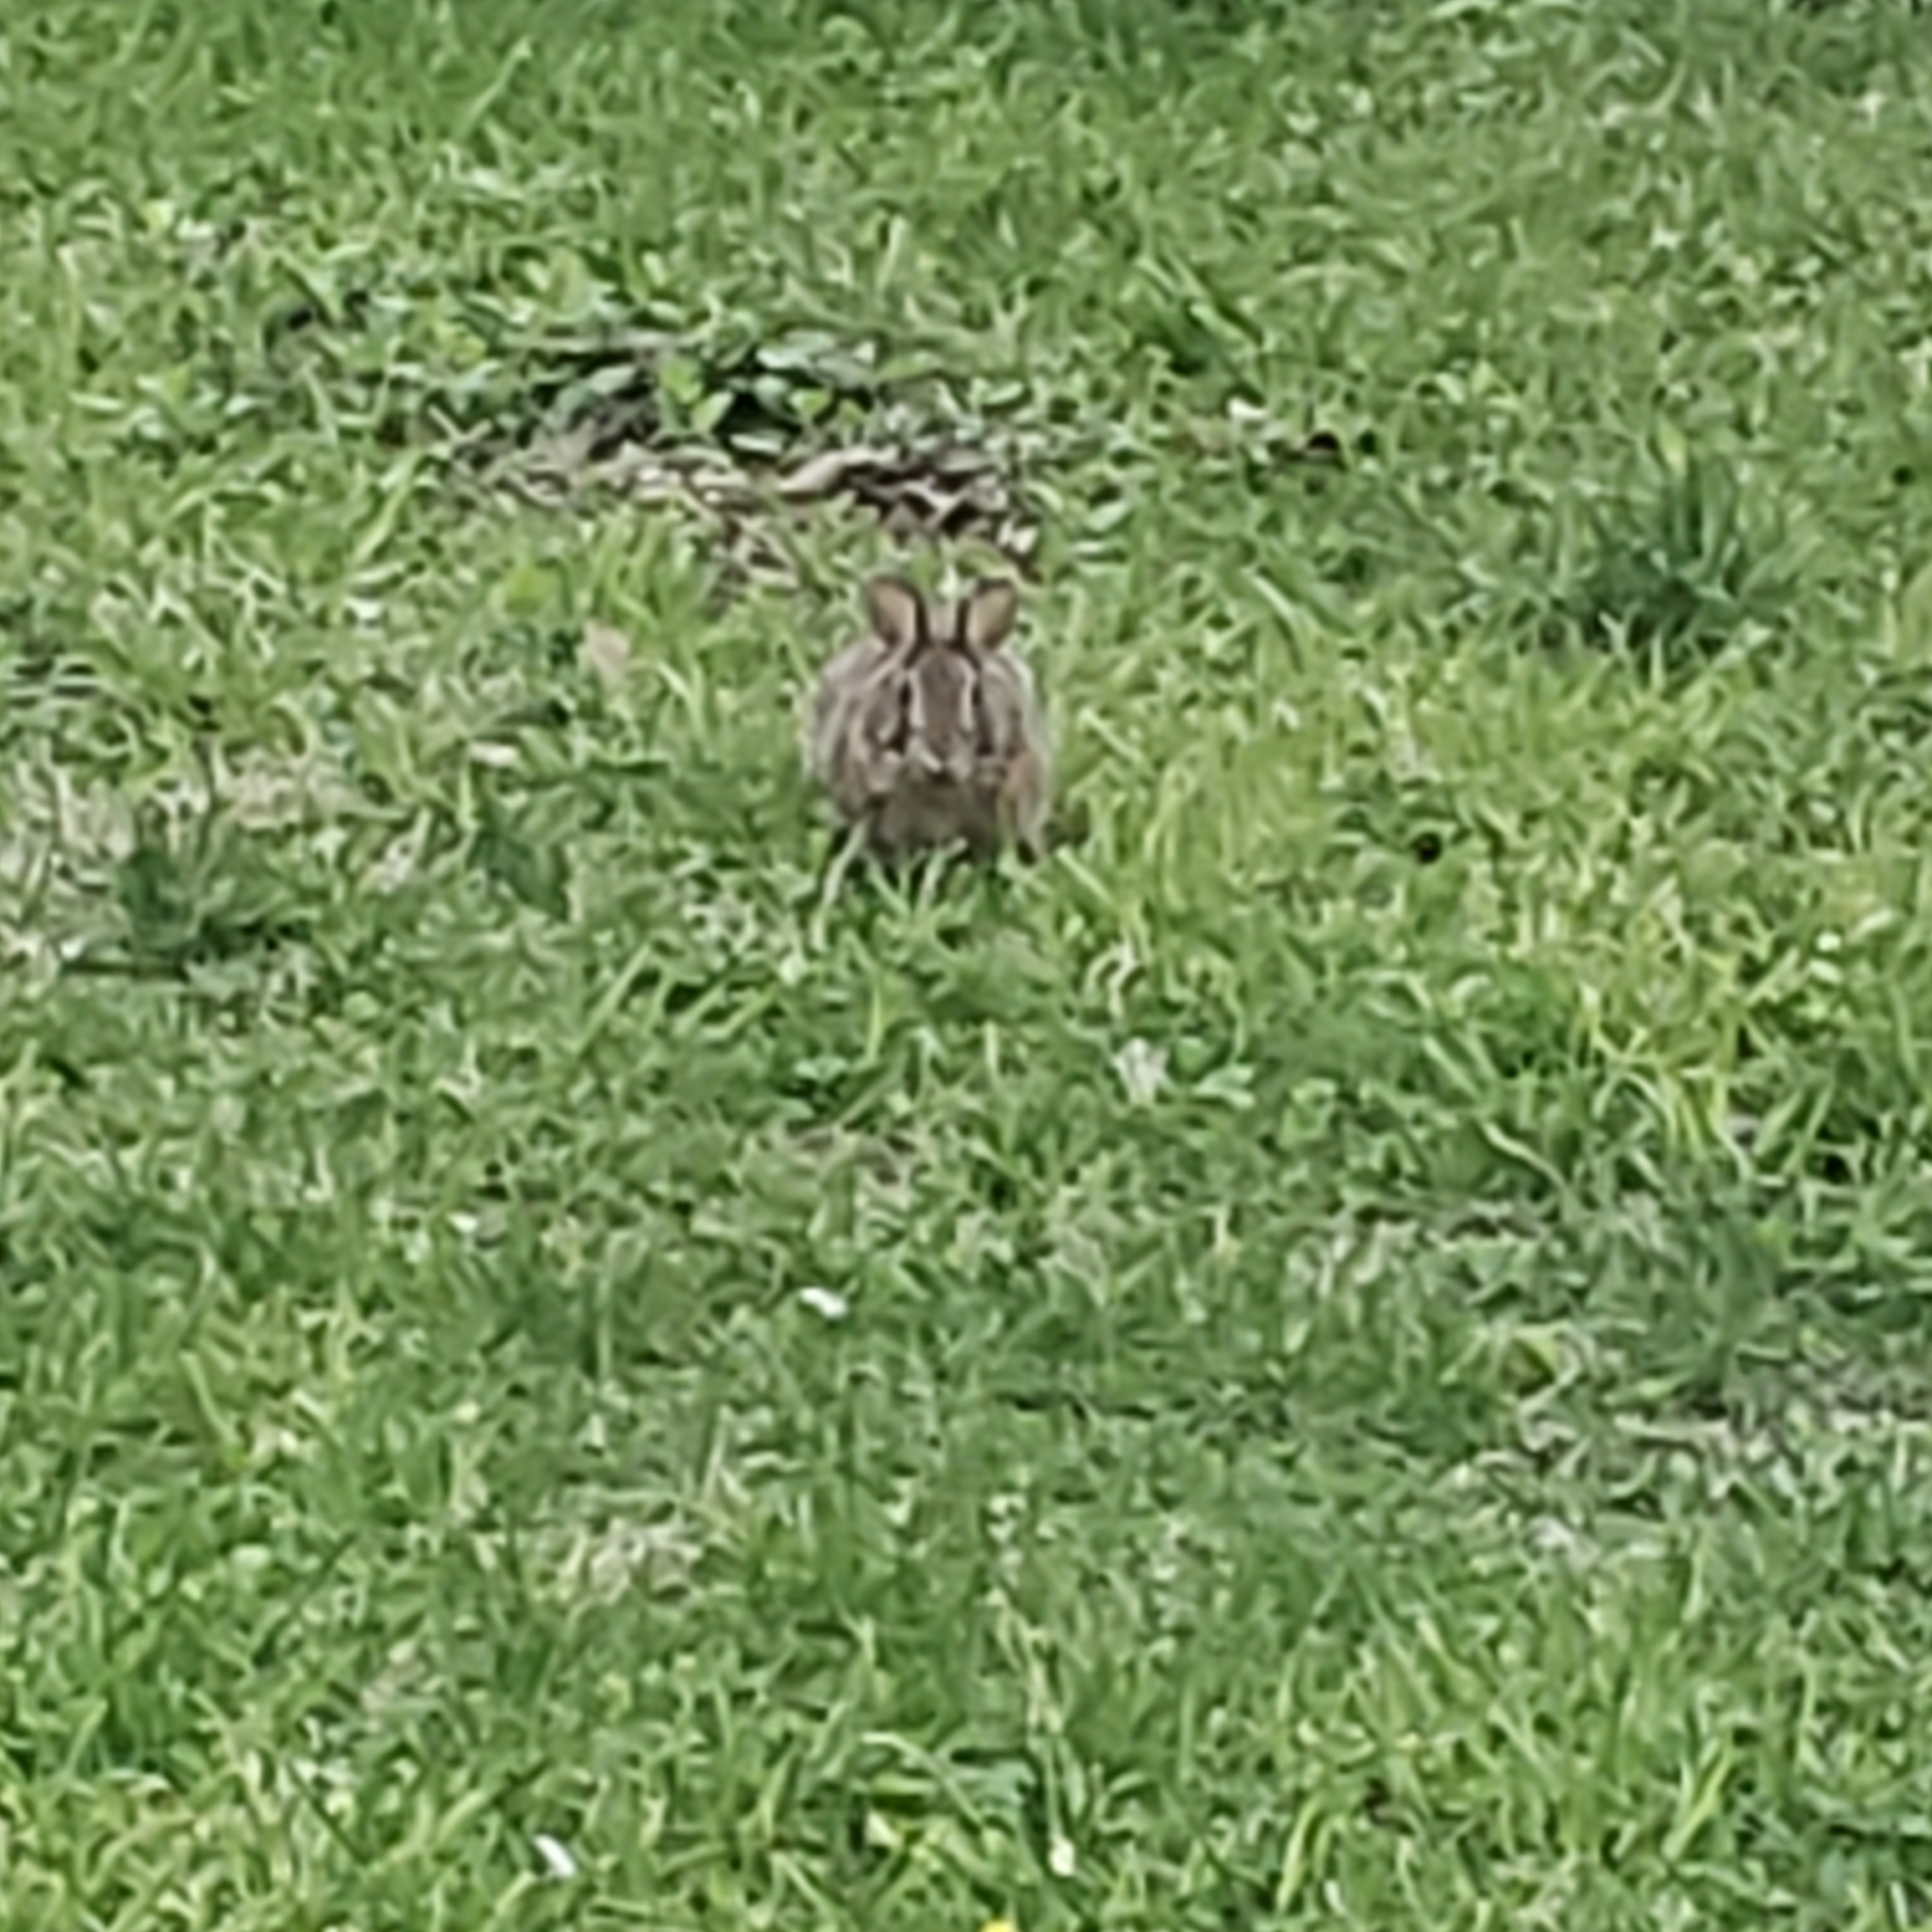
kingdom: Animalia
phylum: Chordata
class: Mammalia
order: Lagomorpha
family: Leporidae
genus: Sylvilagus
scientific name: Sylvilagus floridanus
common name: Eastern cottontail
